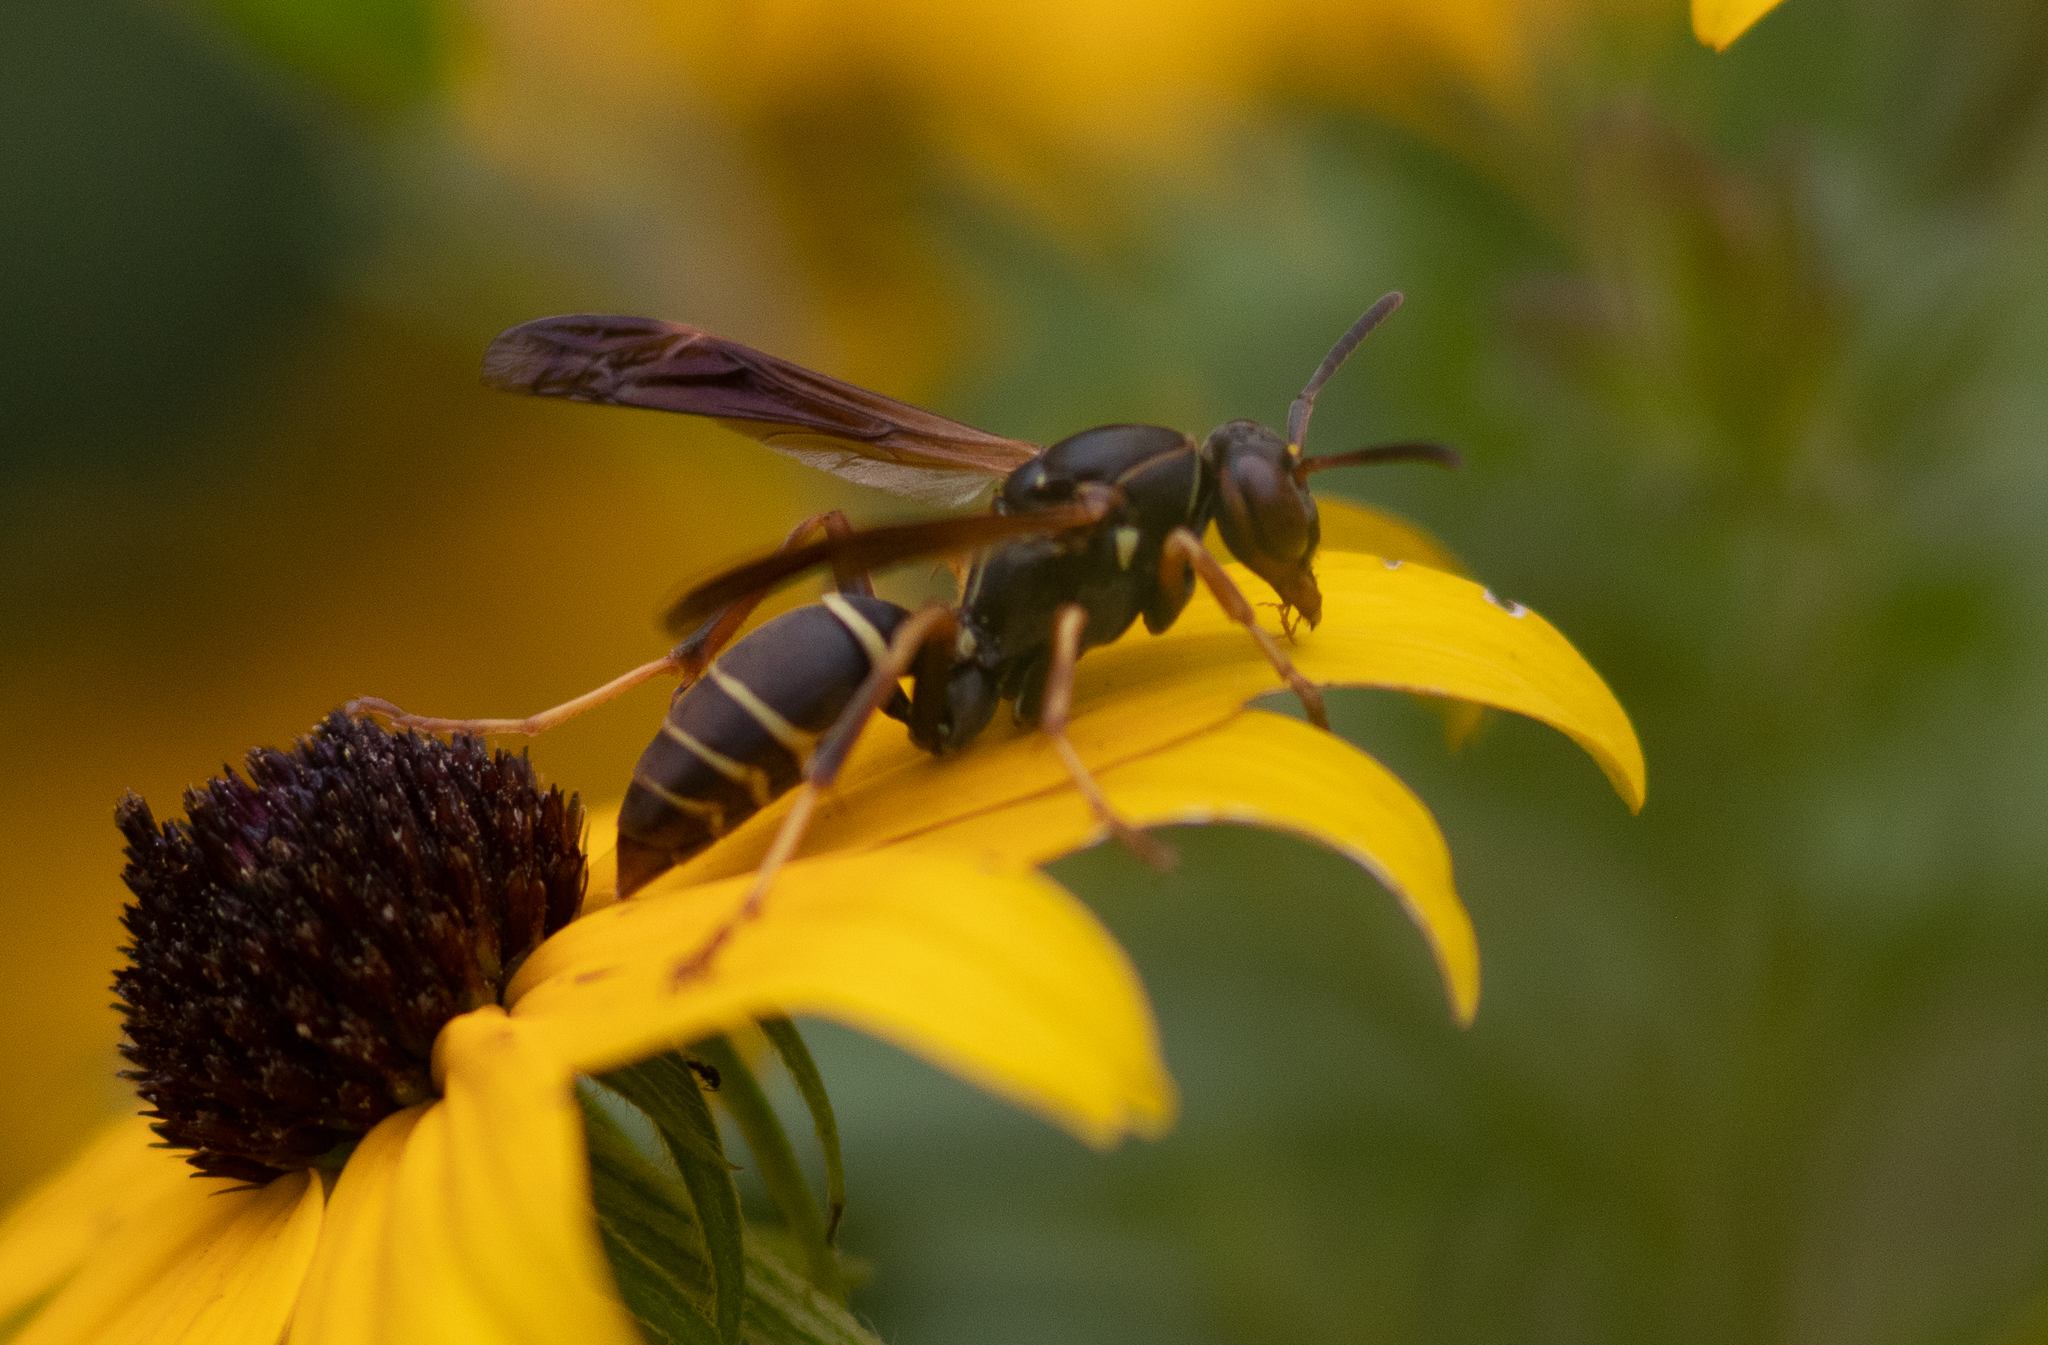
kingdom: Animalia
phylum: Arthropoda
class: Insecta
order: Hymenoptera
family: Eumenidae
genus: Polistes
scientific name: Polistes fuscatus
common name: Dark paper wasp
